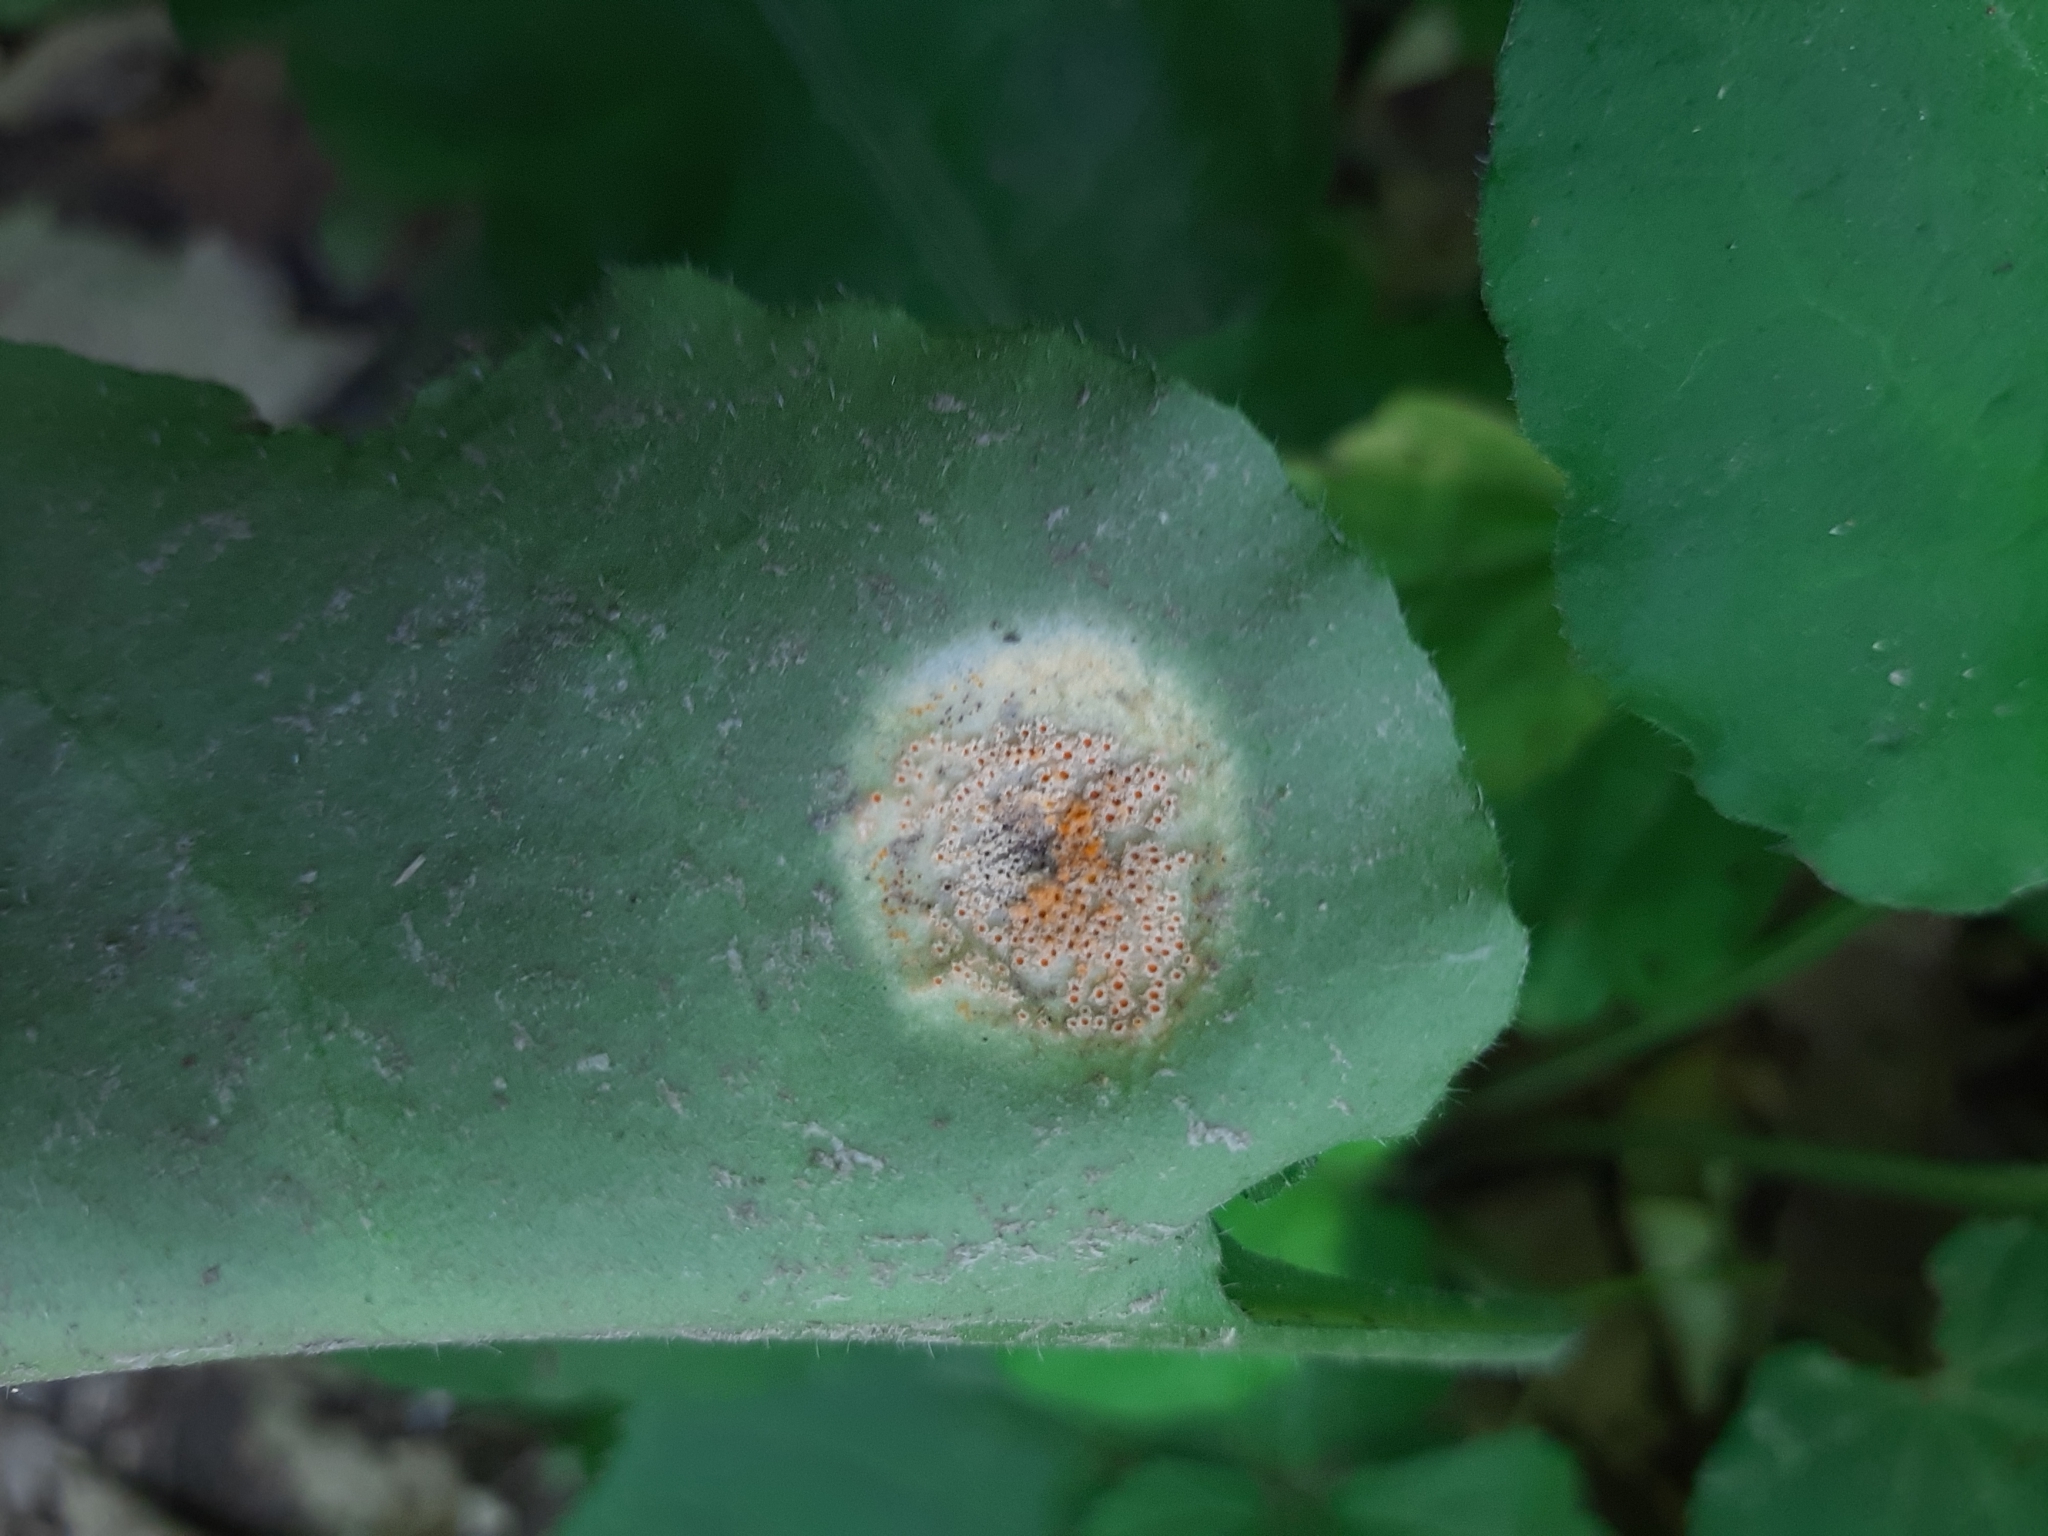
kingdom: Fungi
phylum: Basidiomycota
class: Pucciniomycetes
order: Pucciniales
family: Pucciniaceae
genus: Puccinia
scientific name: Puccinia recondita
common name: Brown rust of wheat
